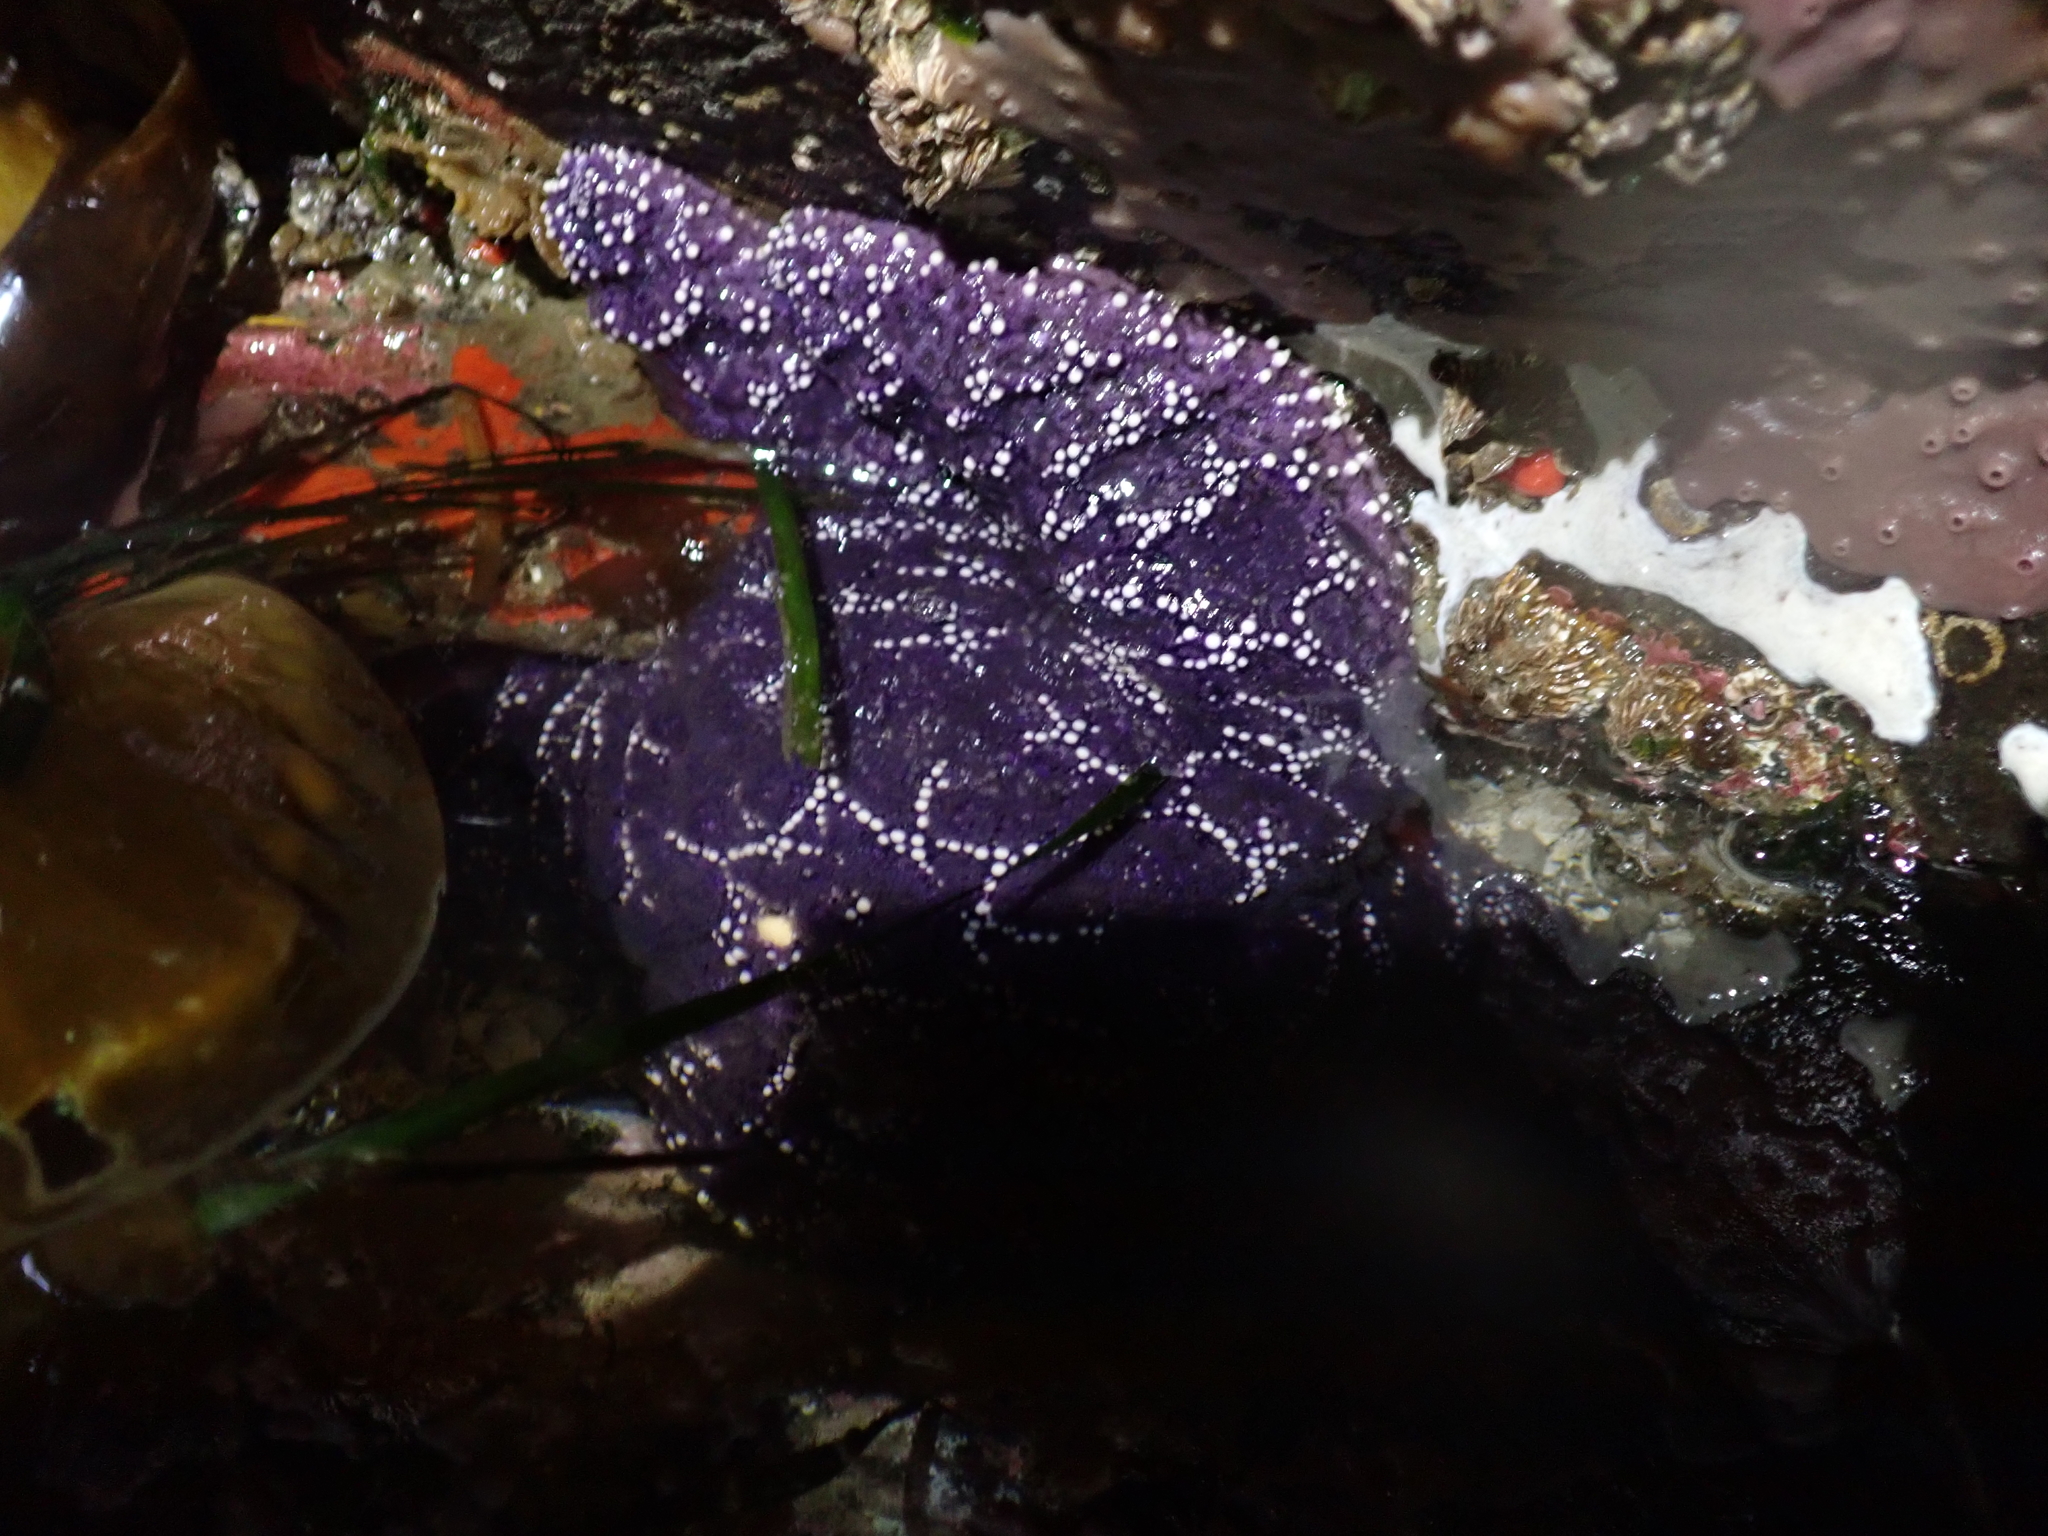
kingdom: Animalia
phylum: Echinodermata
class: Asteroidea
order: Forcipulatida
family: Asteriidae
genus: Pisaster
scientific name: Pisaster ochraceus
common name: Ochre stars
